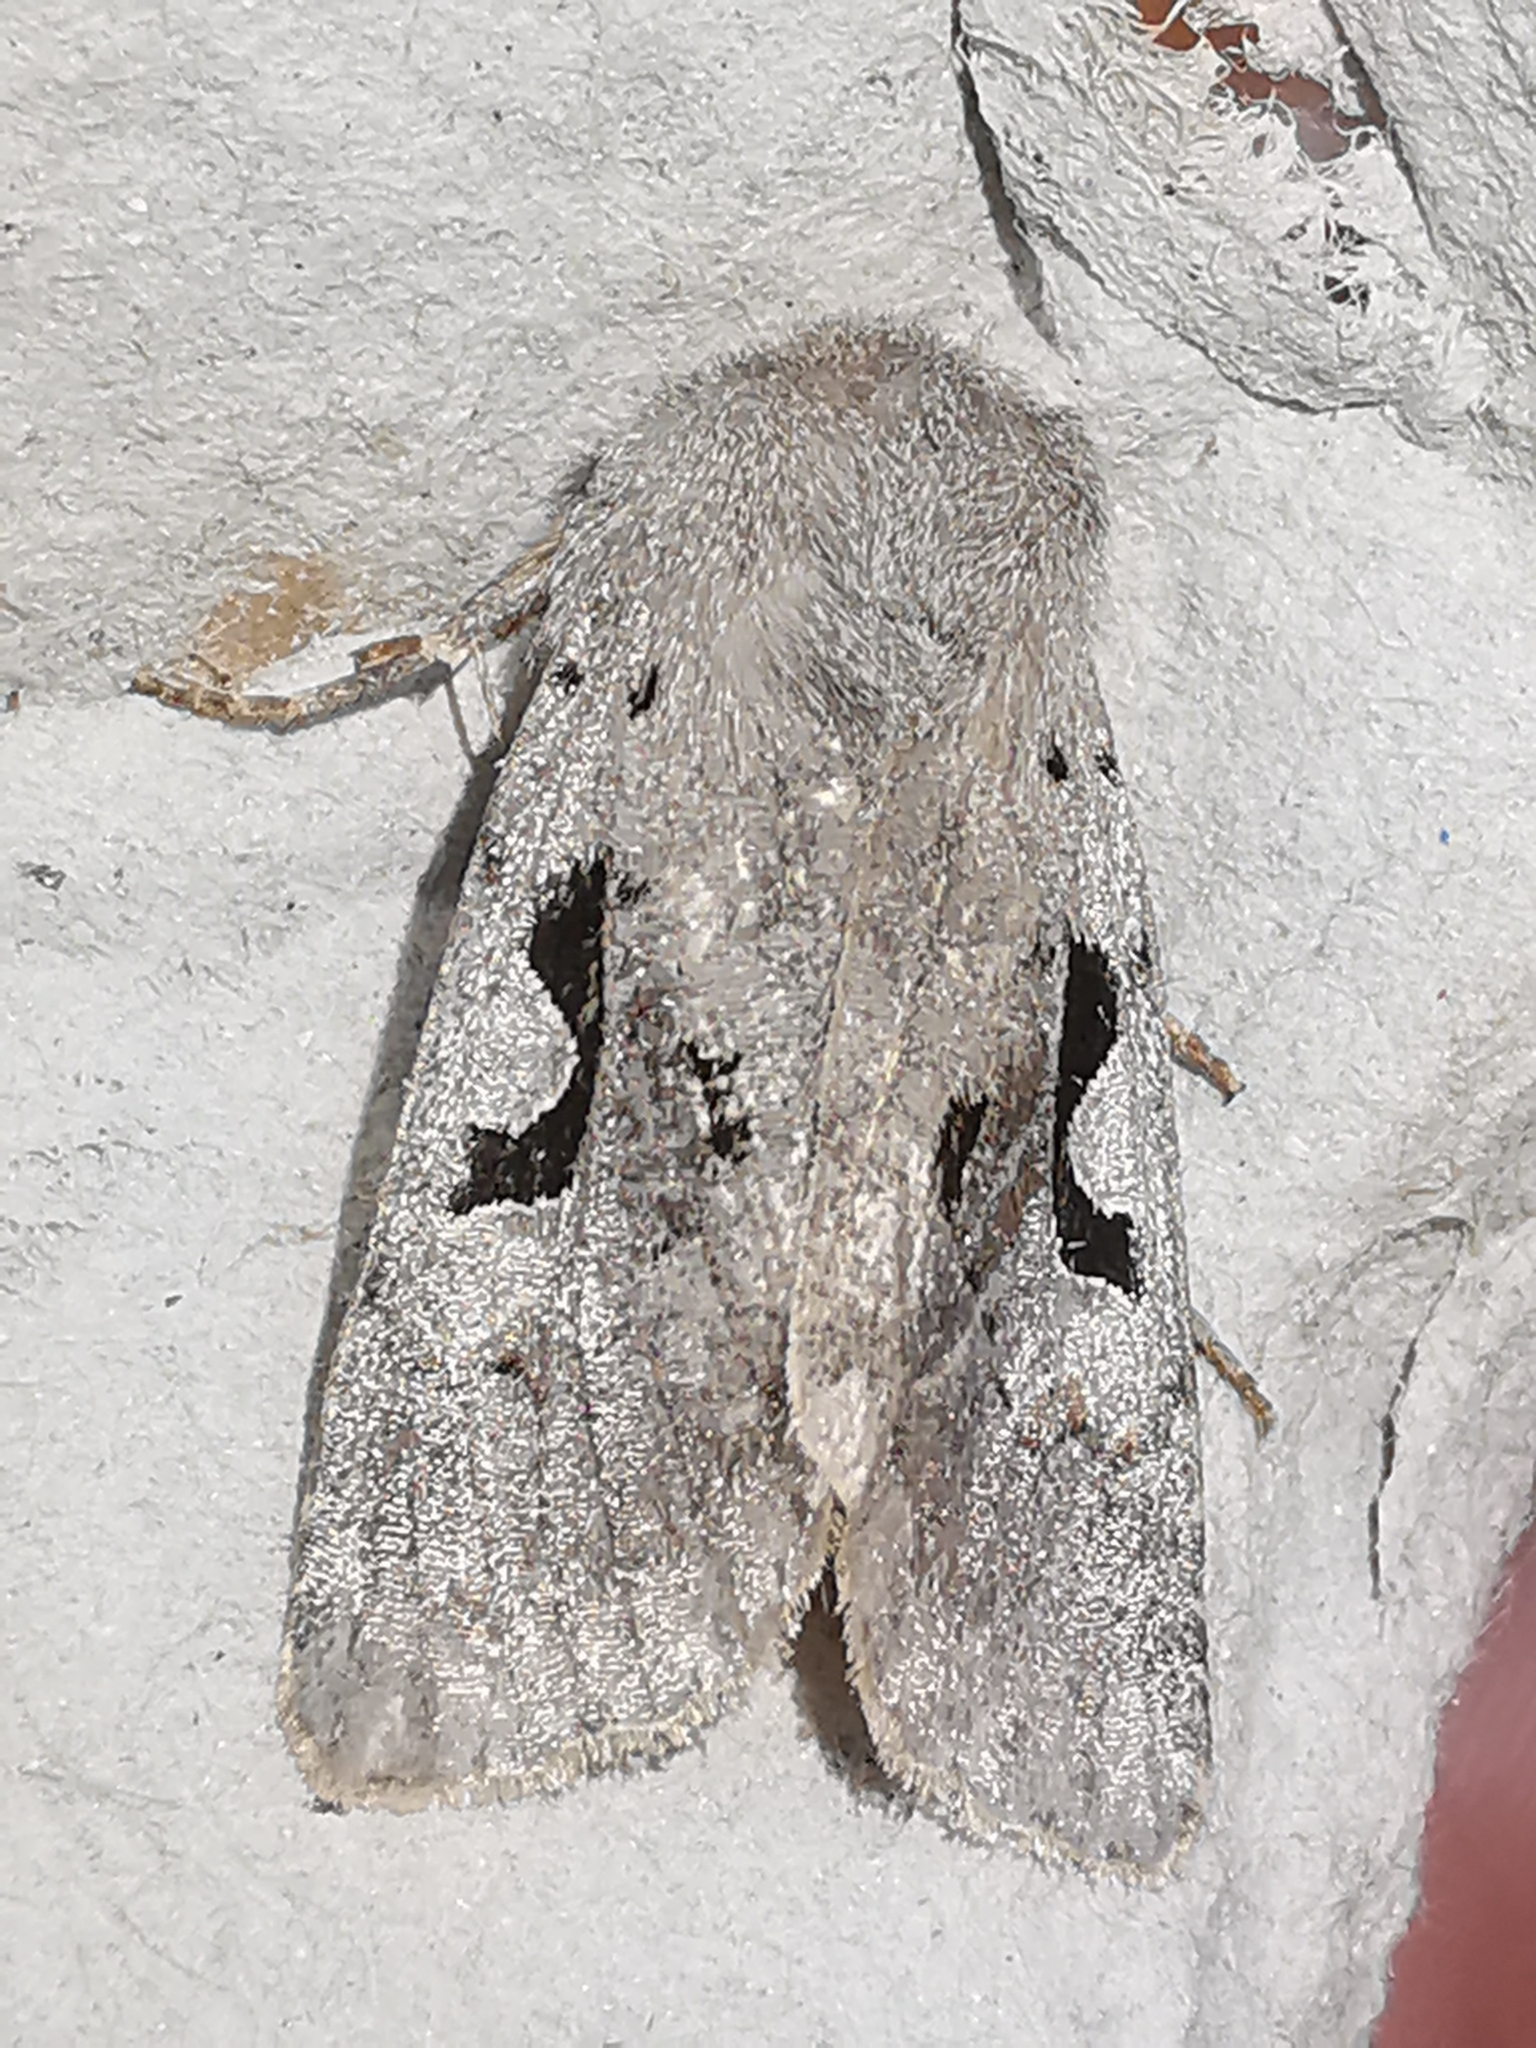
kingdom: Animalia
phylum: Arthropoda
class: Insecta
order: Lepidoptera
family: Noctuidae
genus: Orthosia
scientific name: Orthosia gothica
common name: Hebrew character
